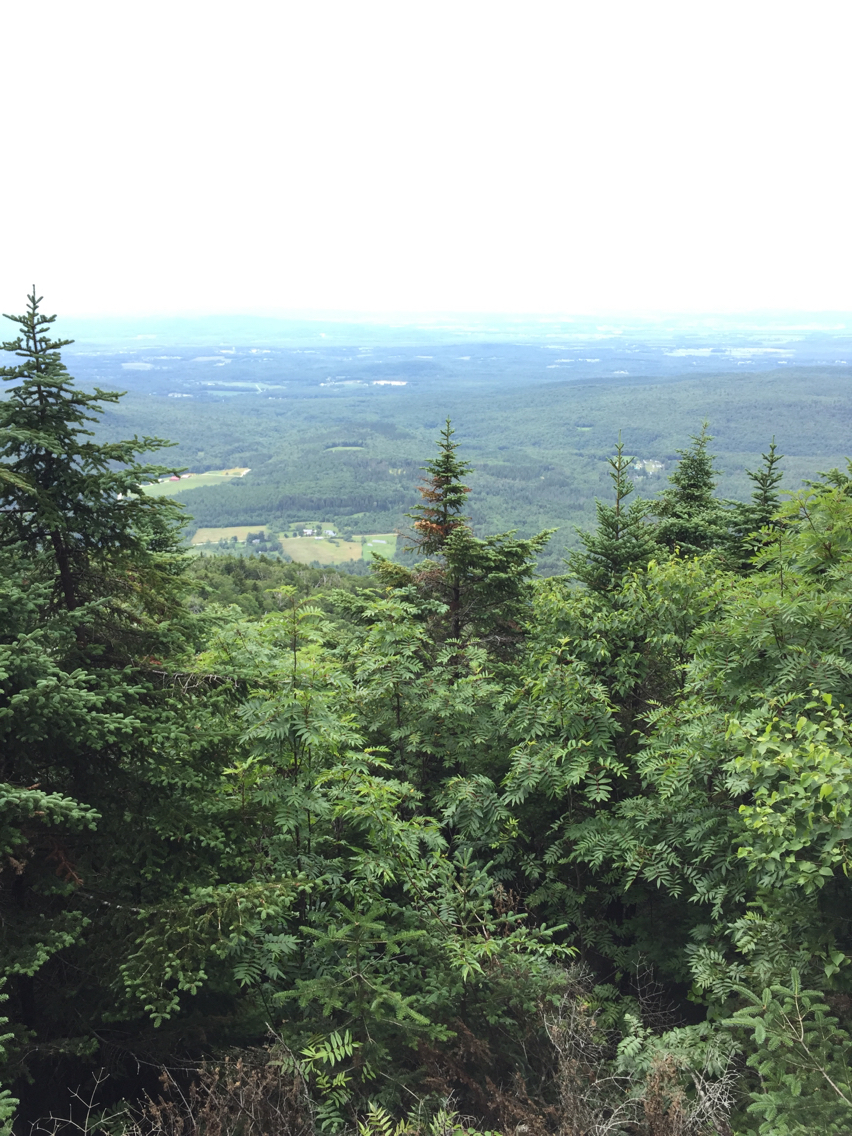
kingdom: Plantae
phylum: Tracheophyta
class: Magnoliopsida
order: Rosales
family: Rosaceae
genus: Sorbus
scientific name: Sorbus americana
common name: American mountain-ash
